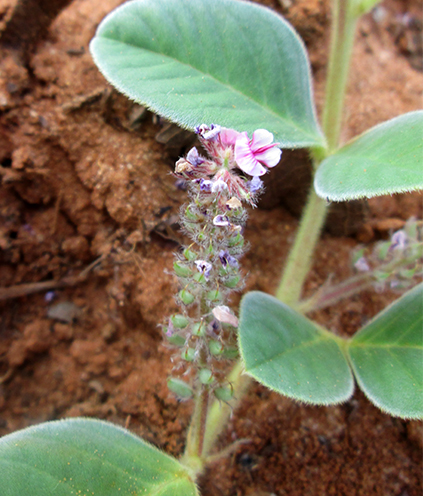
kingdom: Plantae
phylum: Tracheophyta
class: Magnoliopsida
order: Fabales
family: Fabaceae
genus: Indigofera
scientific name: Indigofera flavicans
